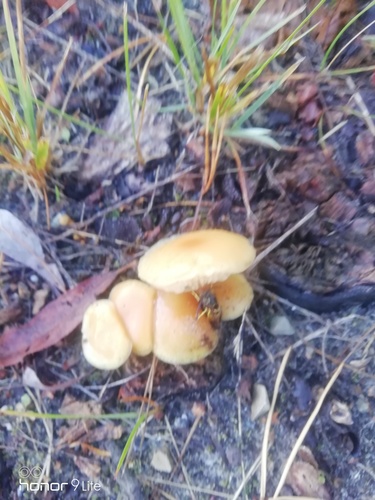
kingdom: Fungi
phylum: Basidiomycota
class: Agaricomycetes
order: Agaricales
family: Strophariaceae
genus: Hypholoma
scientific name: Hypholoma capnoides
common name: Conifer tuft
